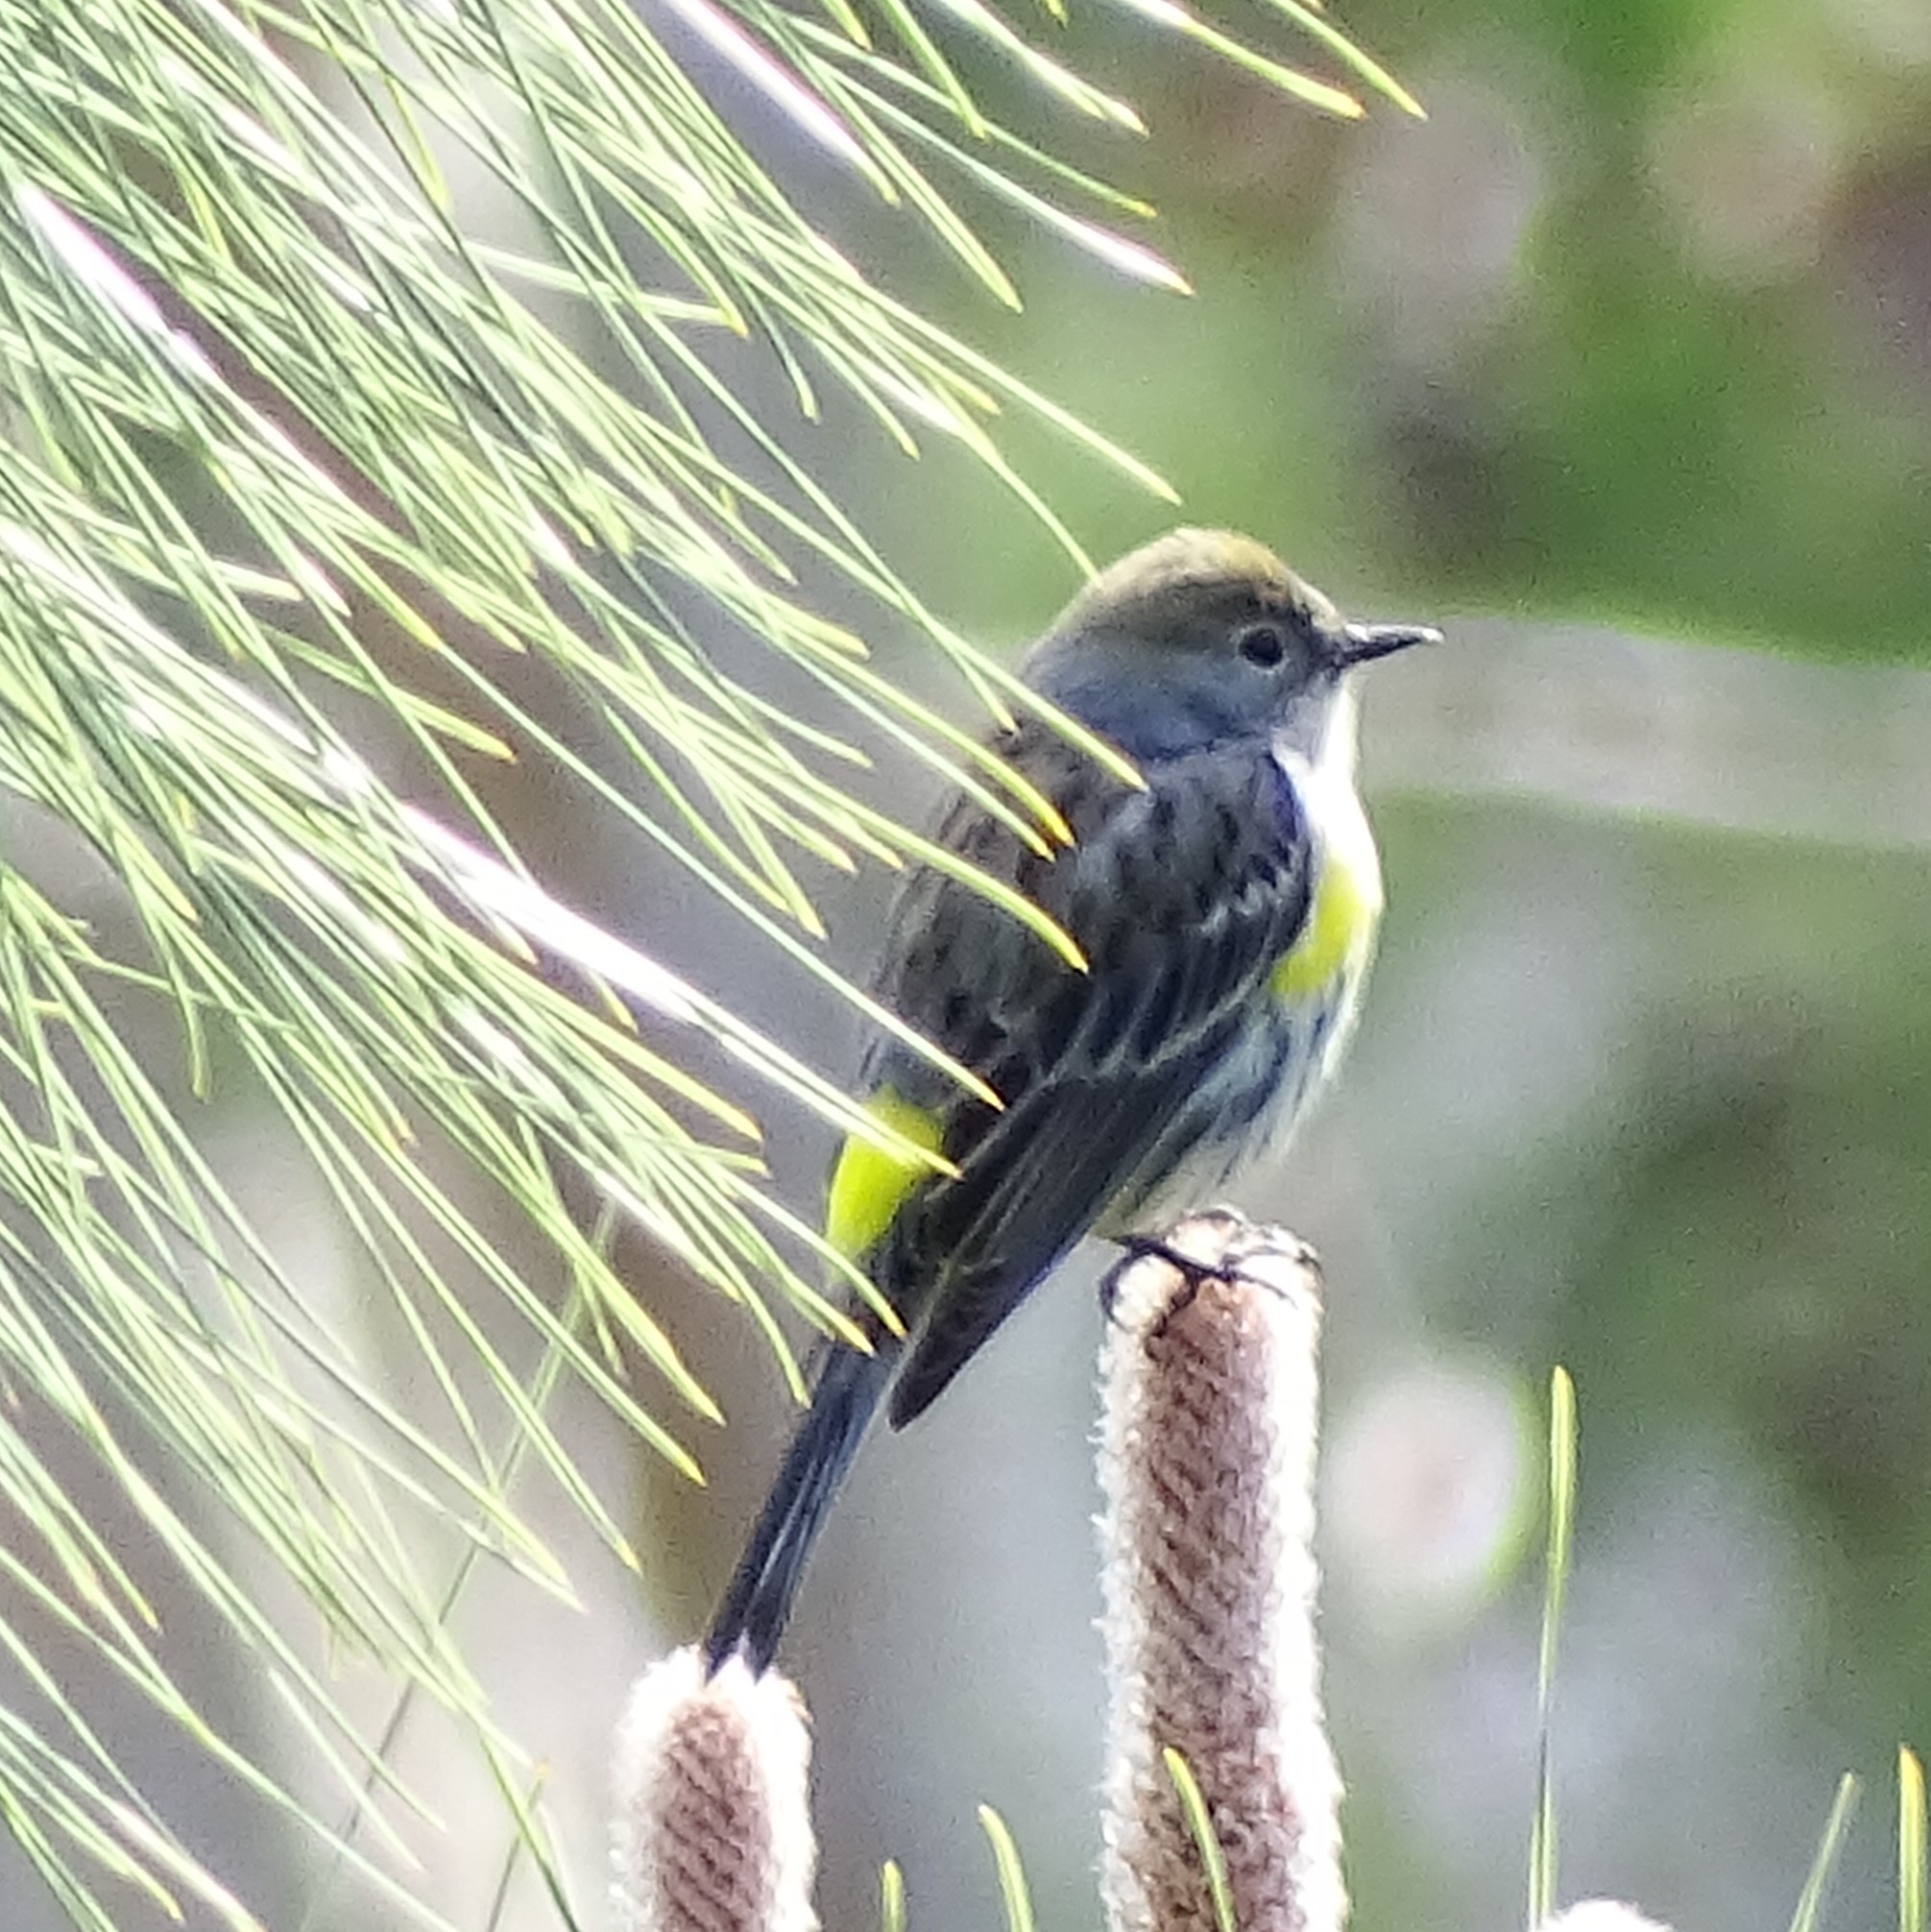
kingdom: Animalia
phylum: Chordata
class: Aves
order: Passeriformes
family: Parulidae
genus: Setophaga
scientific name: Setophaga coronata
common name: Myrtle warbler
